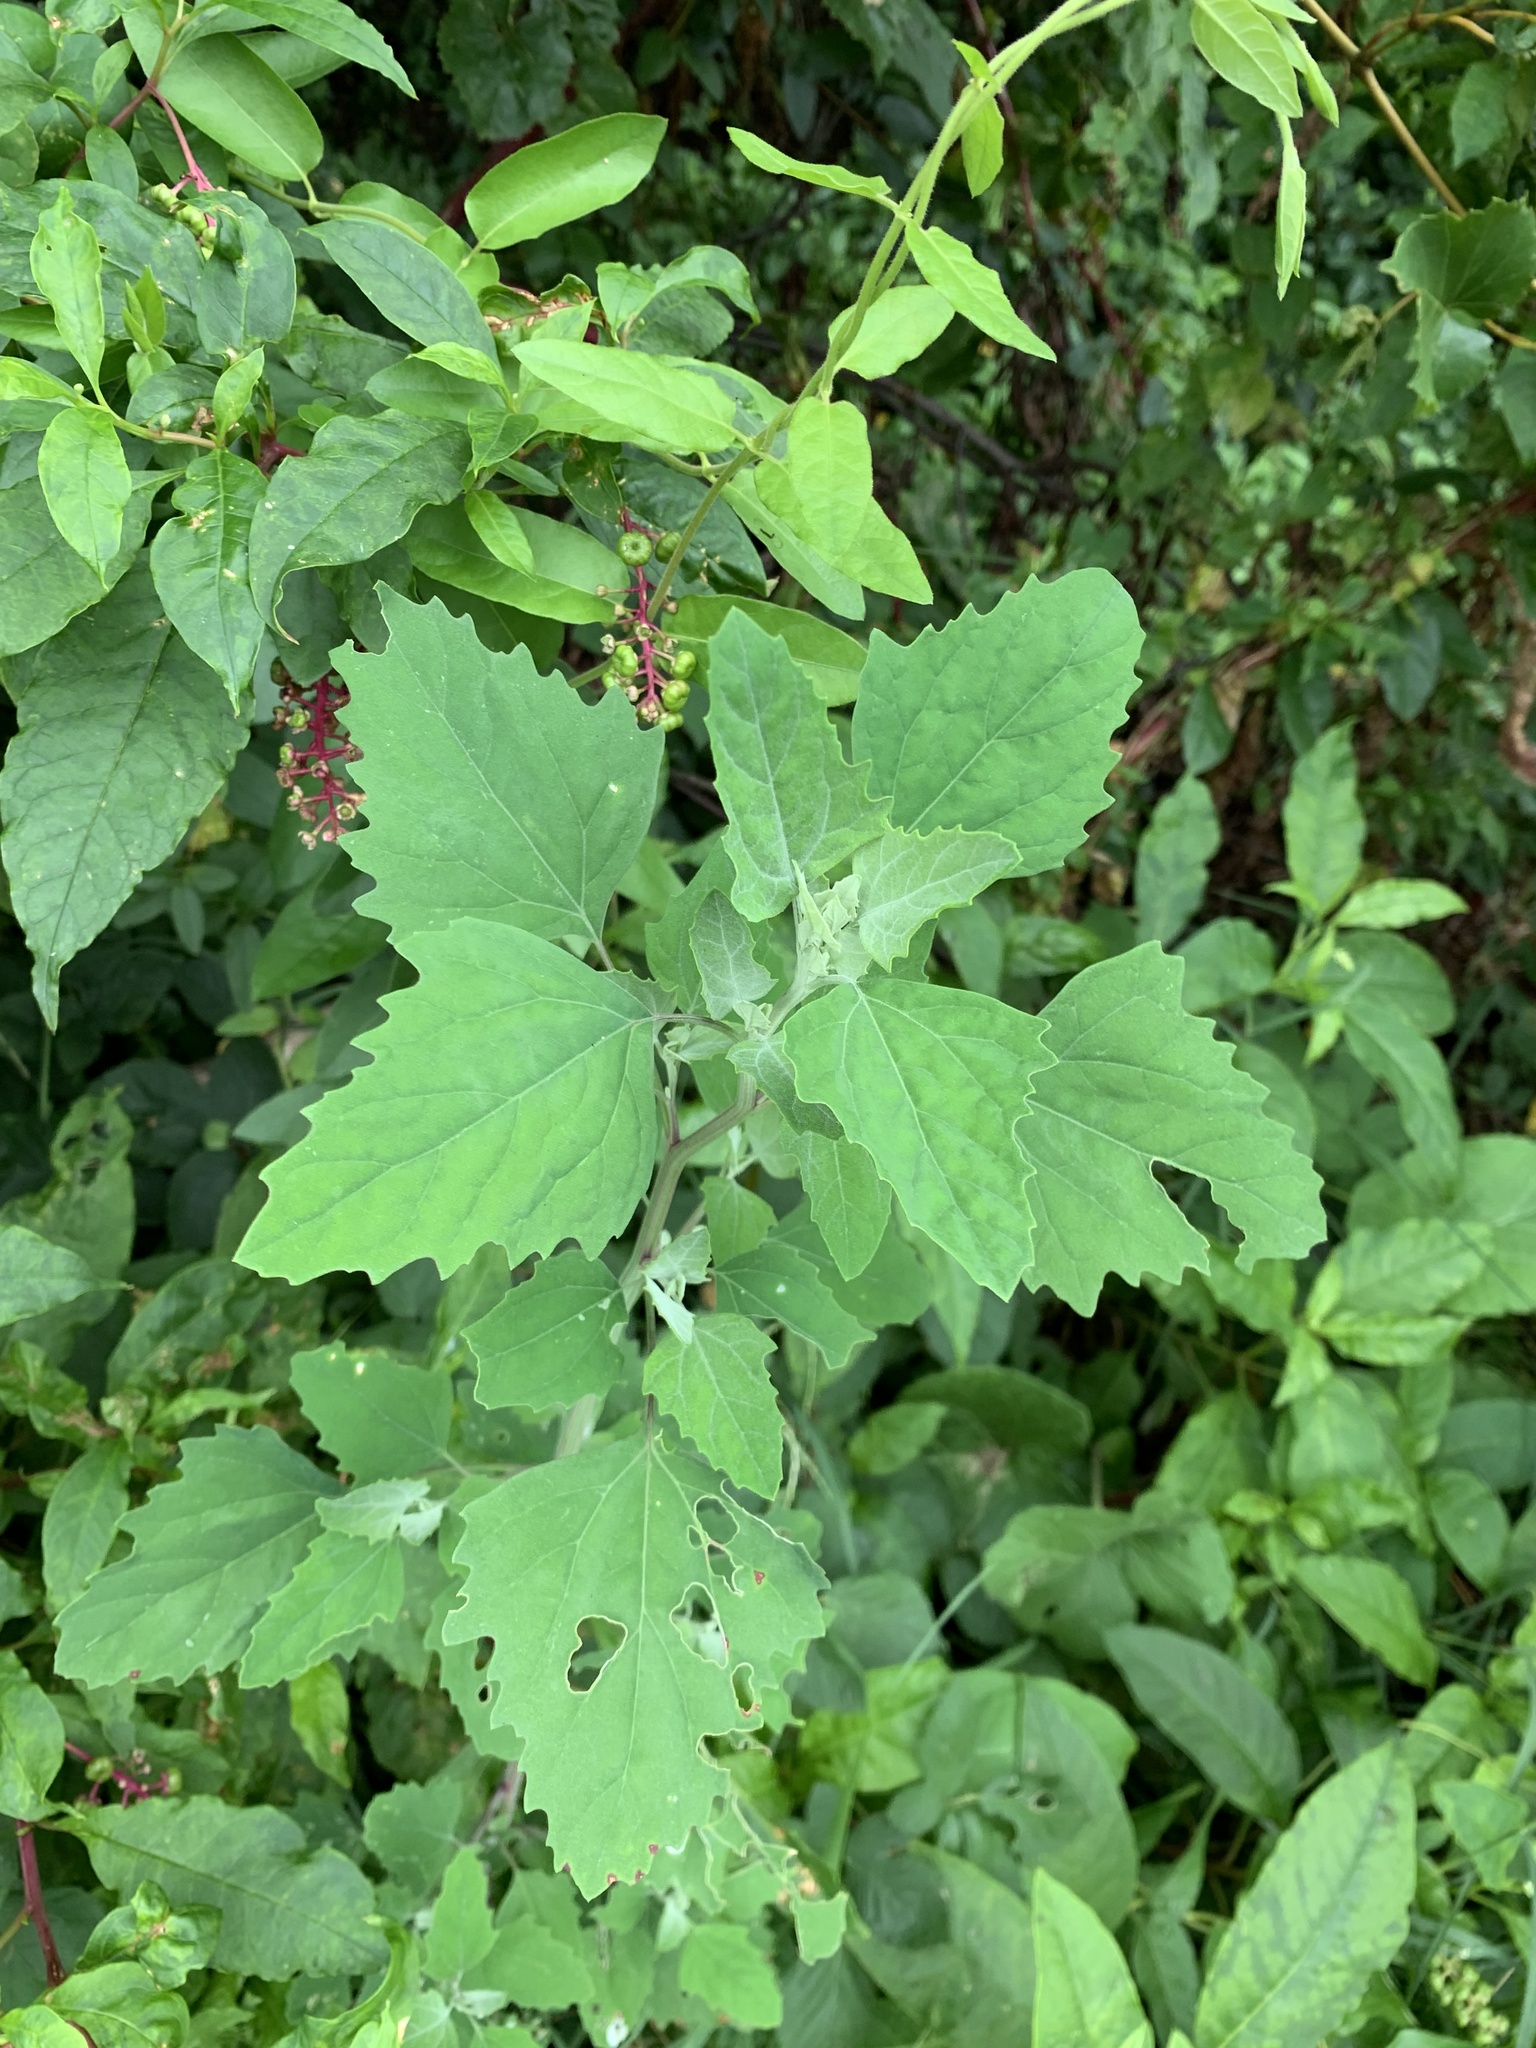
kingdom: Plantae
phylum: Tracheophyta
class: Magnoliopsida
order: Caryophyllales
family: Amaranthaceae
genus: Chenopodium
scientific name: Chenopodium album
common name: Fat-hen
